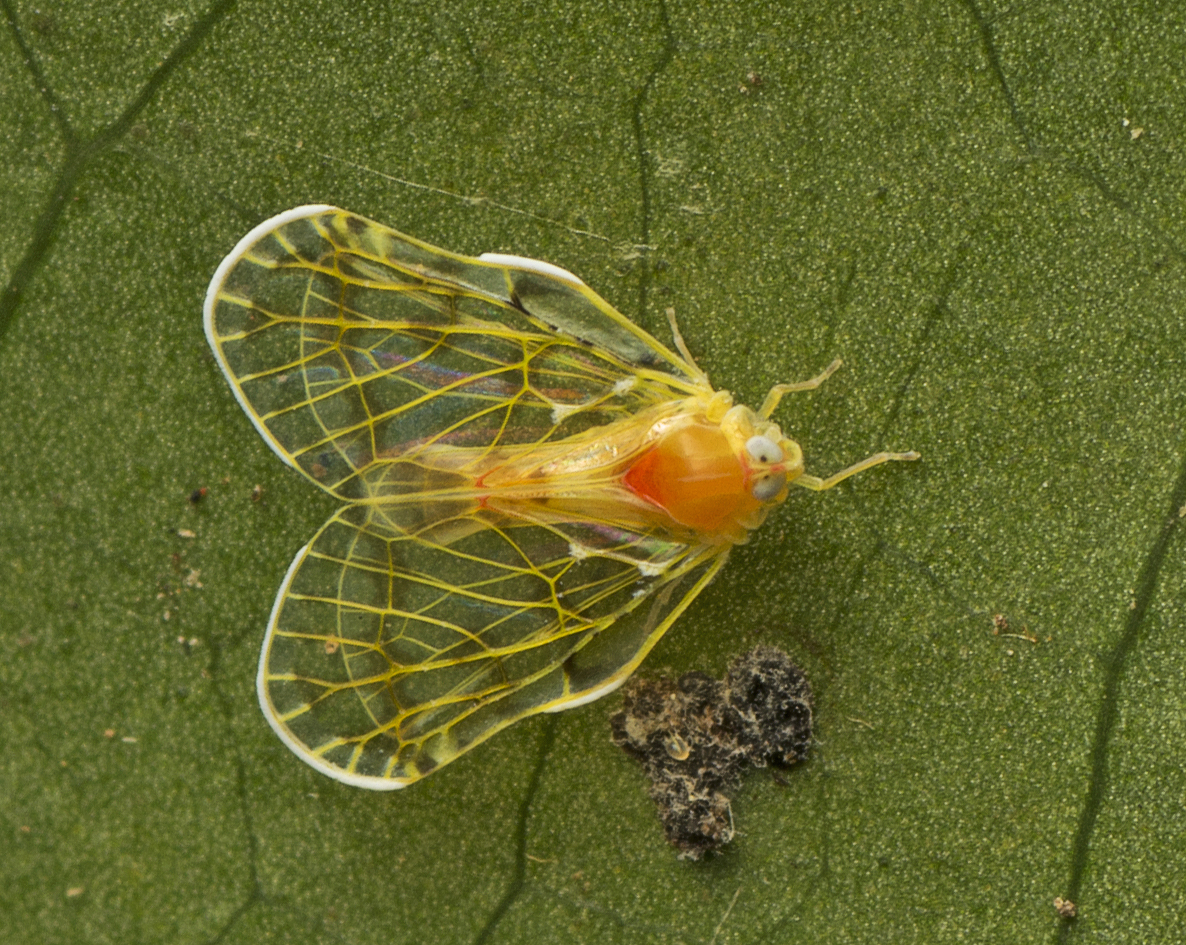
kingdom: Animalia
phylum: Arthropoda
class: Insecta
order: Hemiptera
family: Derbidae
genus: Saccharodite
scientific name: Saccharodite chrysonoe
